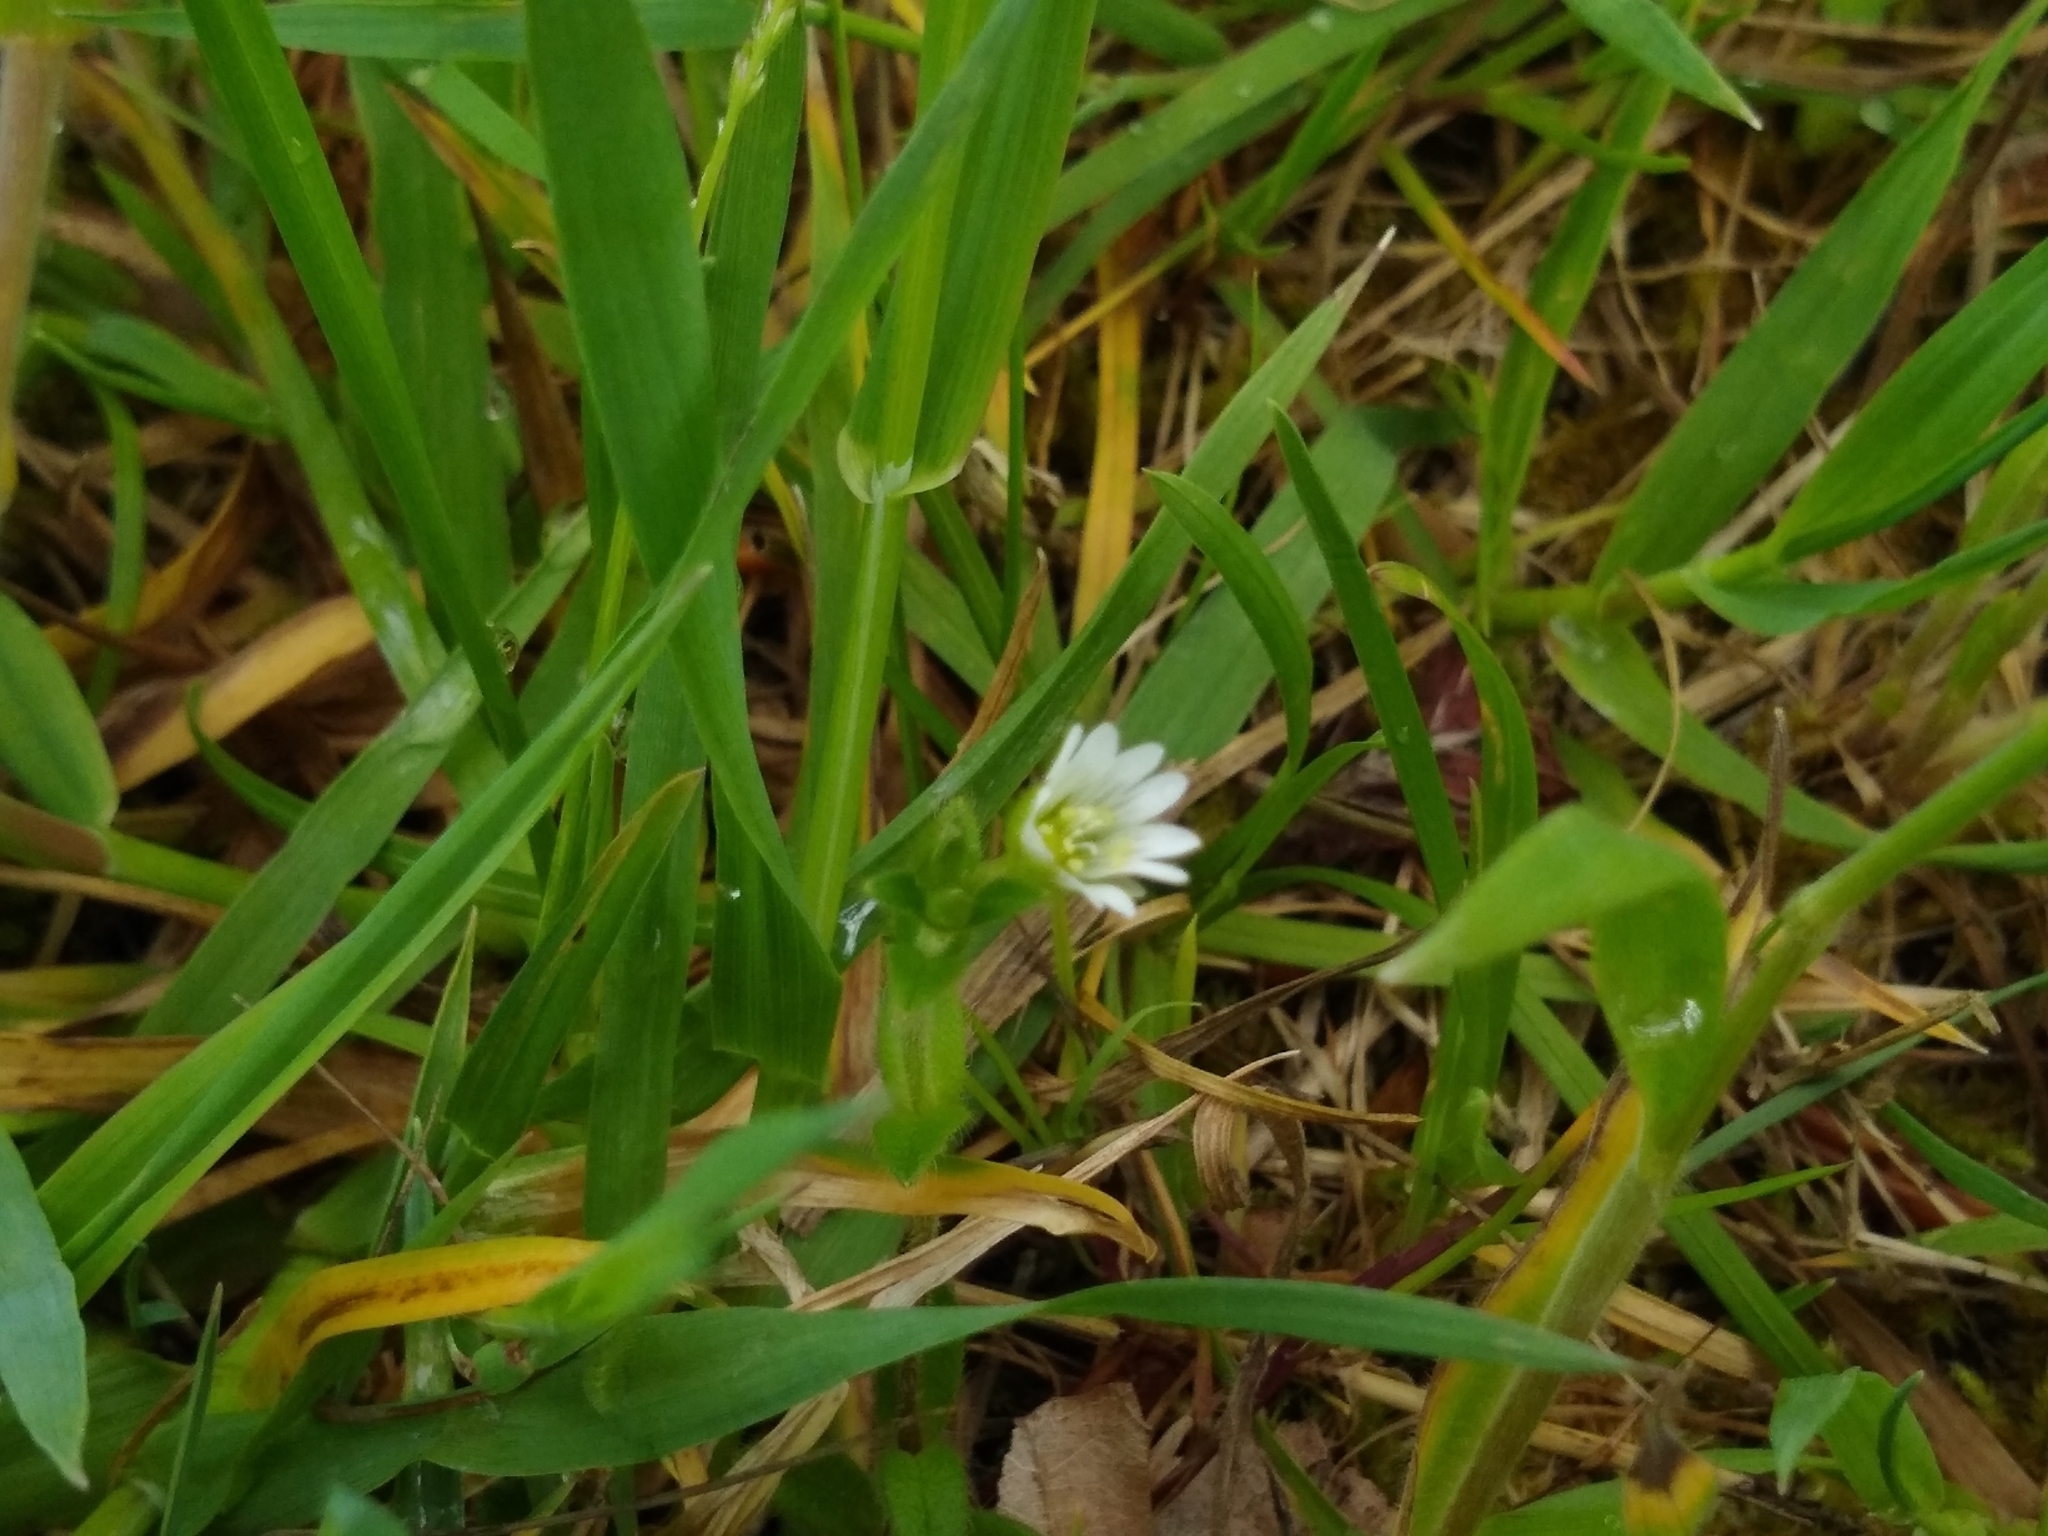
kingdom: Plantae
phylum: Tracheophyta
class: Magnoliopsida
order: Caryophyllales
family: Caryophyllaceae
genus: Cerastium
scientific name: Cerastium fontanum
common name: Common mouse-ear
